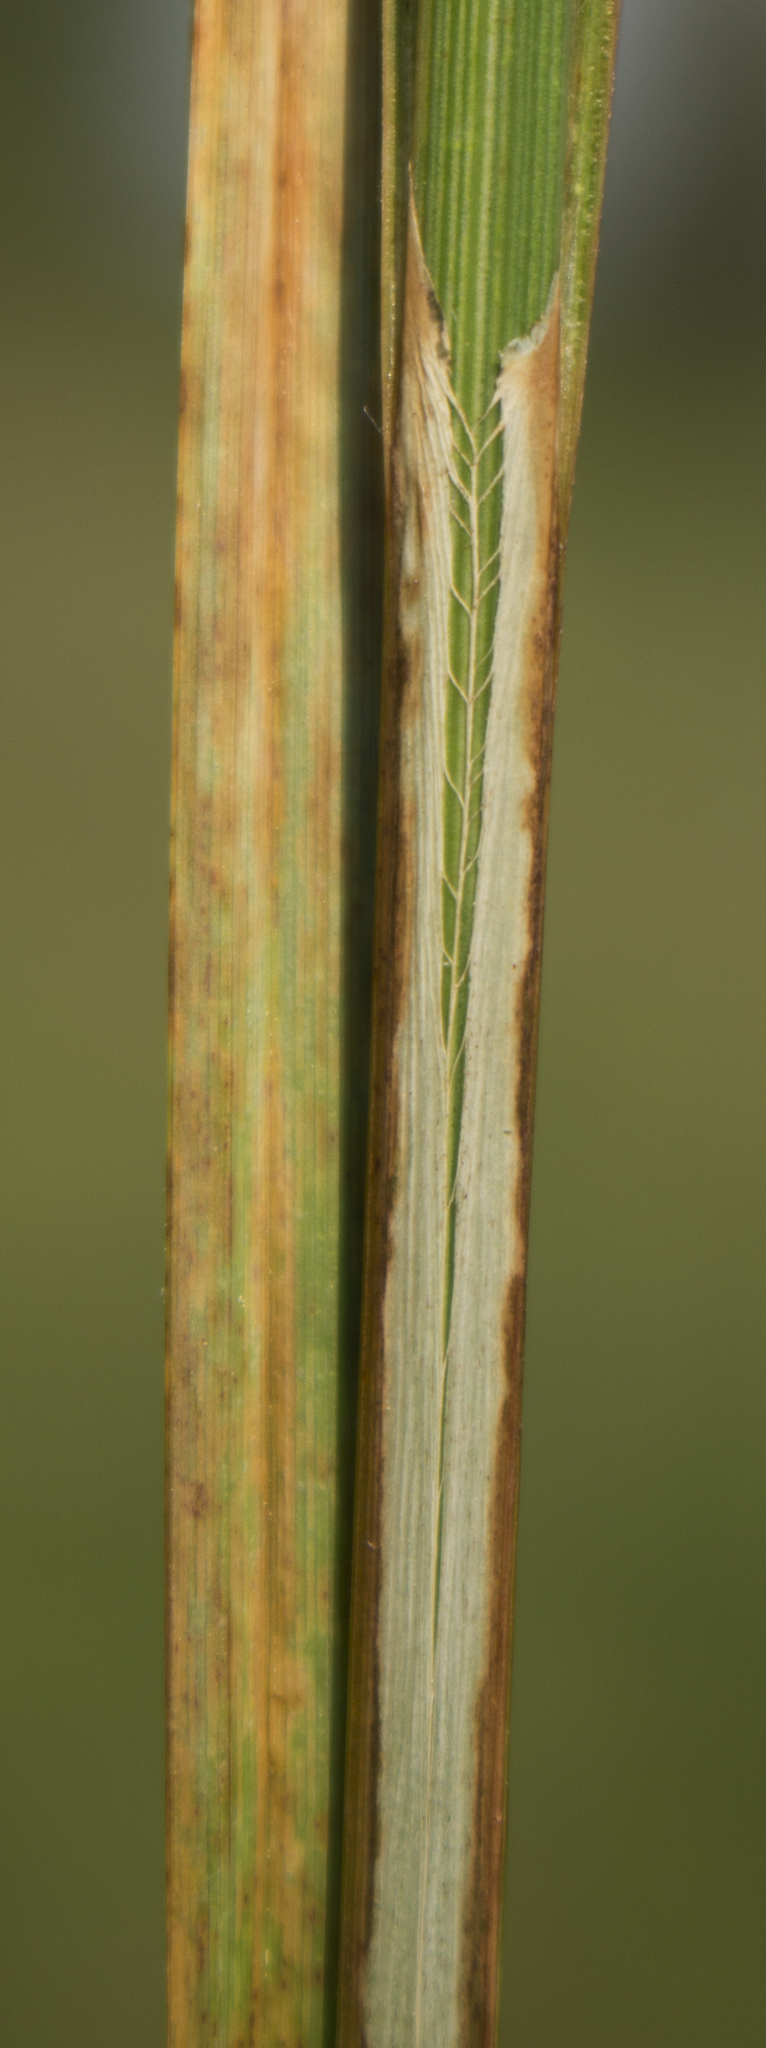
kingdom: Plantae
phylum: Tracheophyta
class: Liliopsida
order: Poales
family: Cyperaceae
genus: Carex
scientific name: Carex lacustris
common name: Common lake sedge
